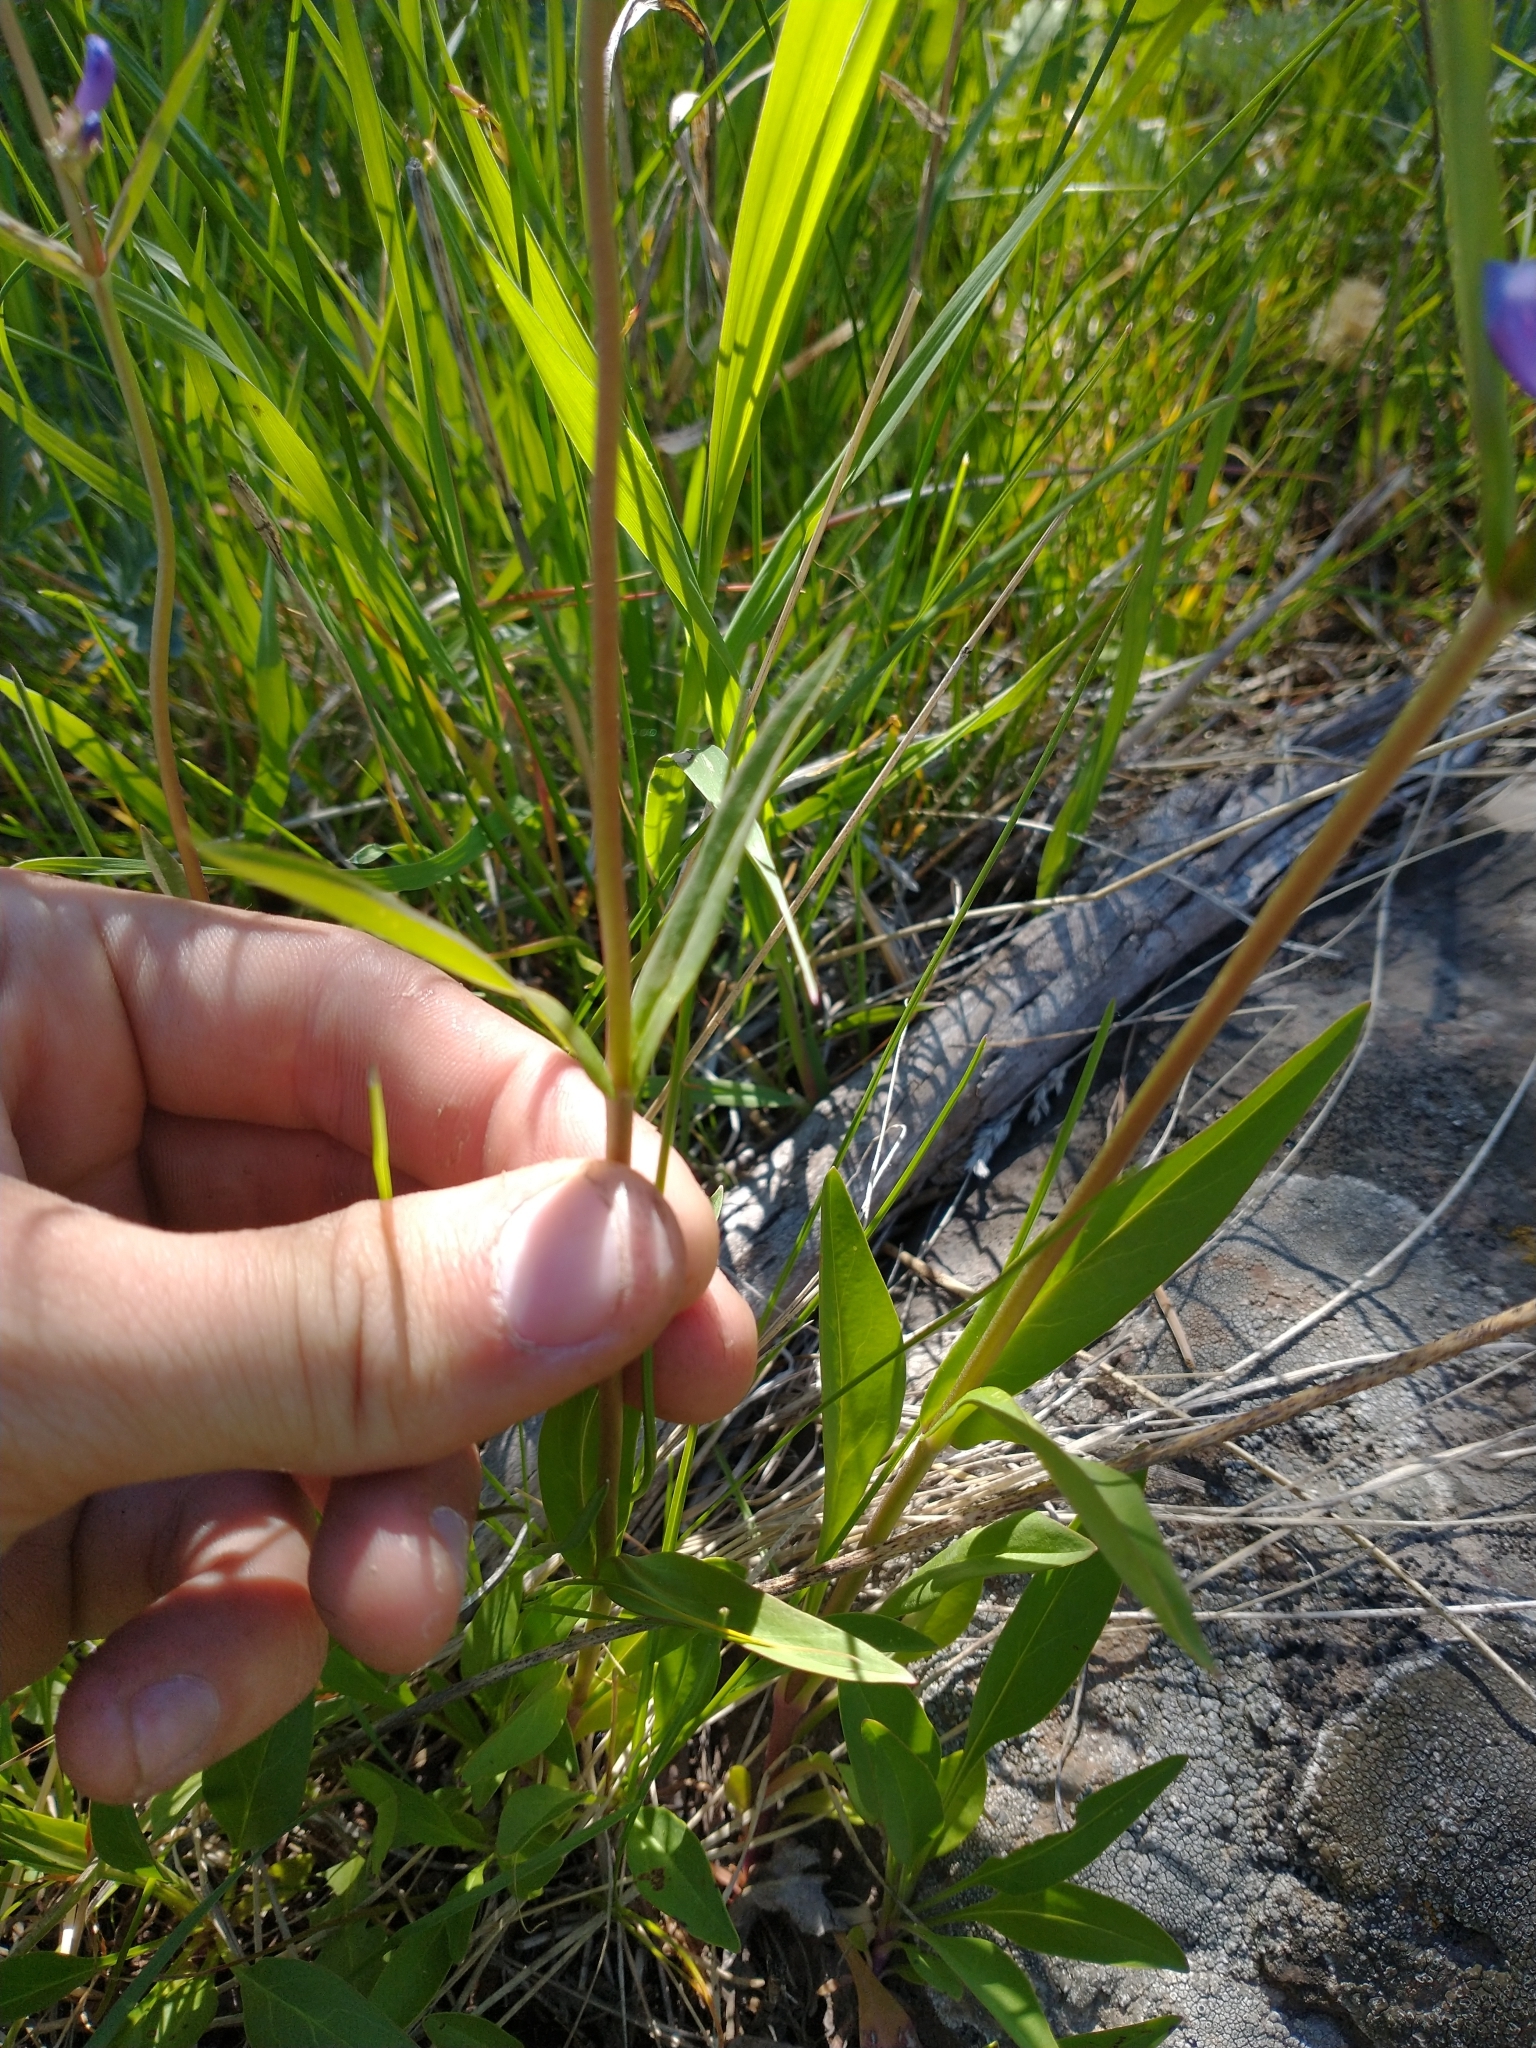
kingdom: Plantae
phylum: Tracheophyta
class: Magnoliopsida
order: Lamiales
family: Plantaginaceae
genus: Penstemon
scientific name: Penstemon rydbergii
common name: Rydberg's beardtongue
